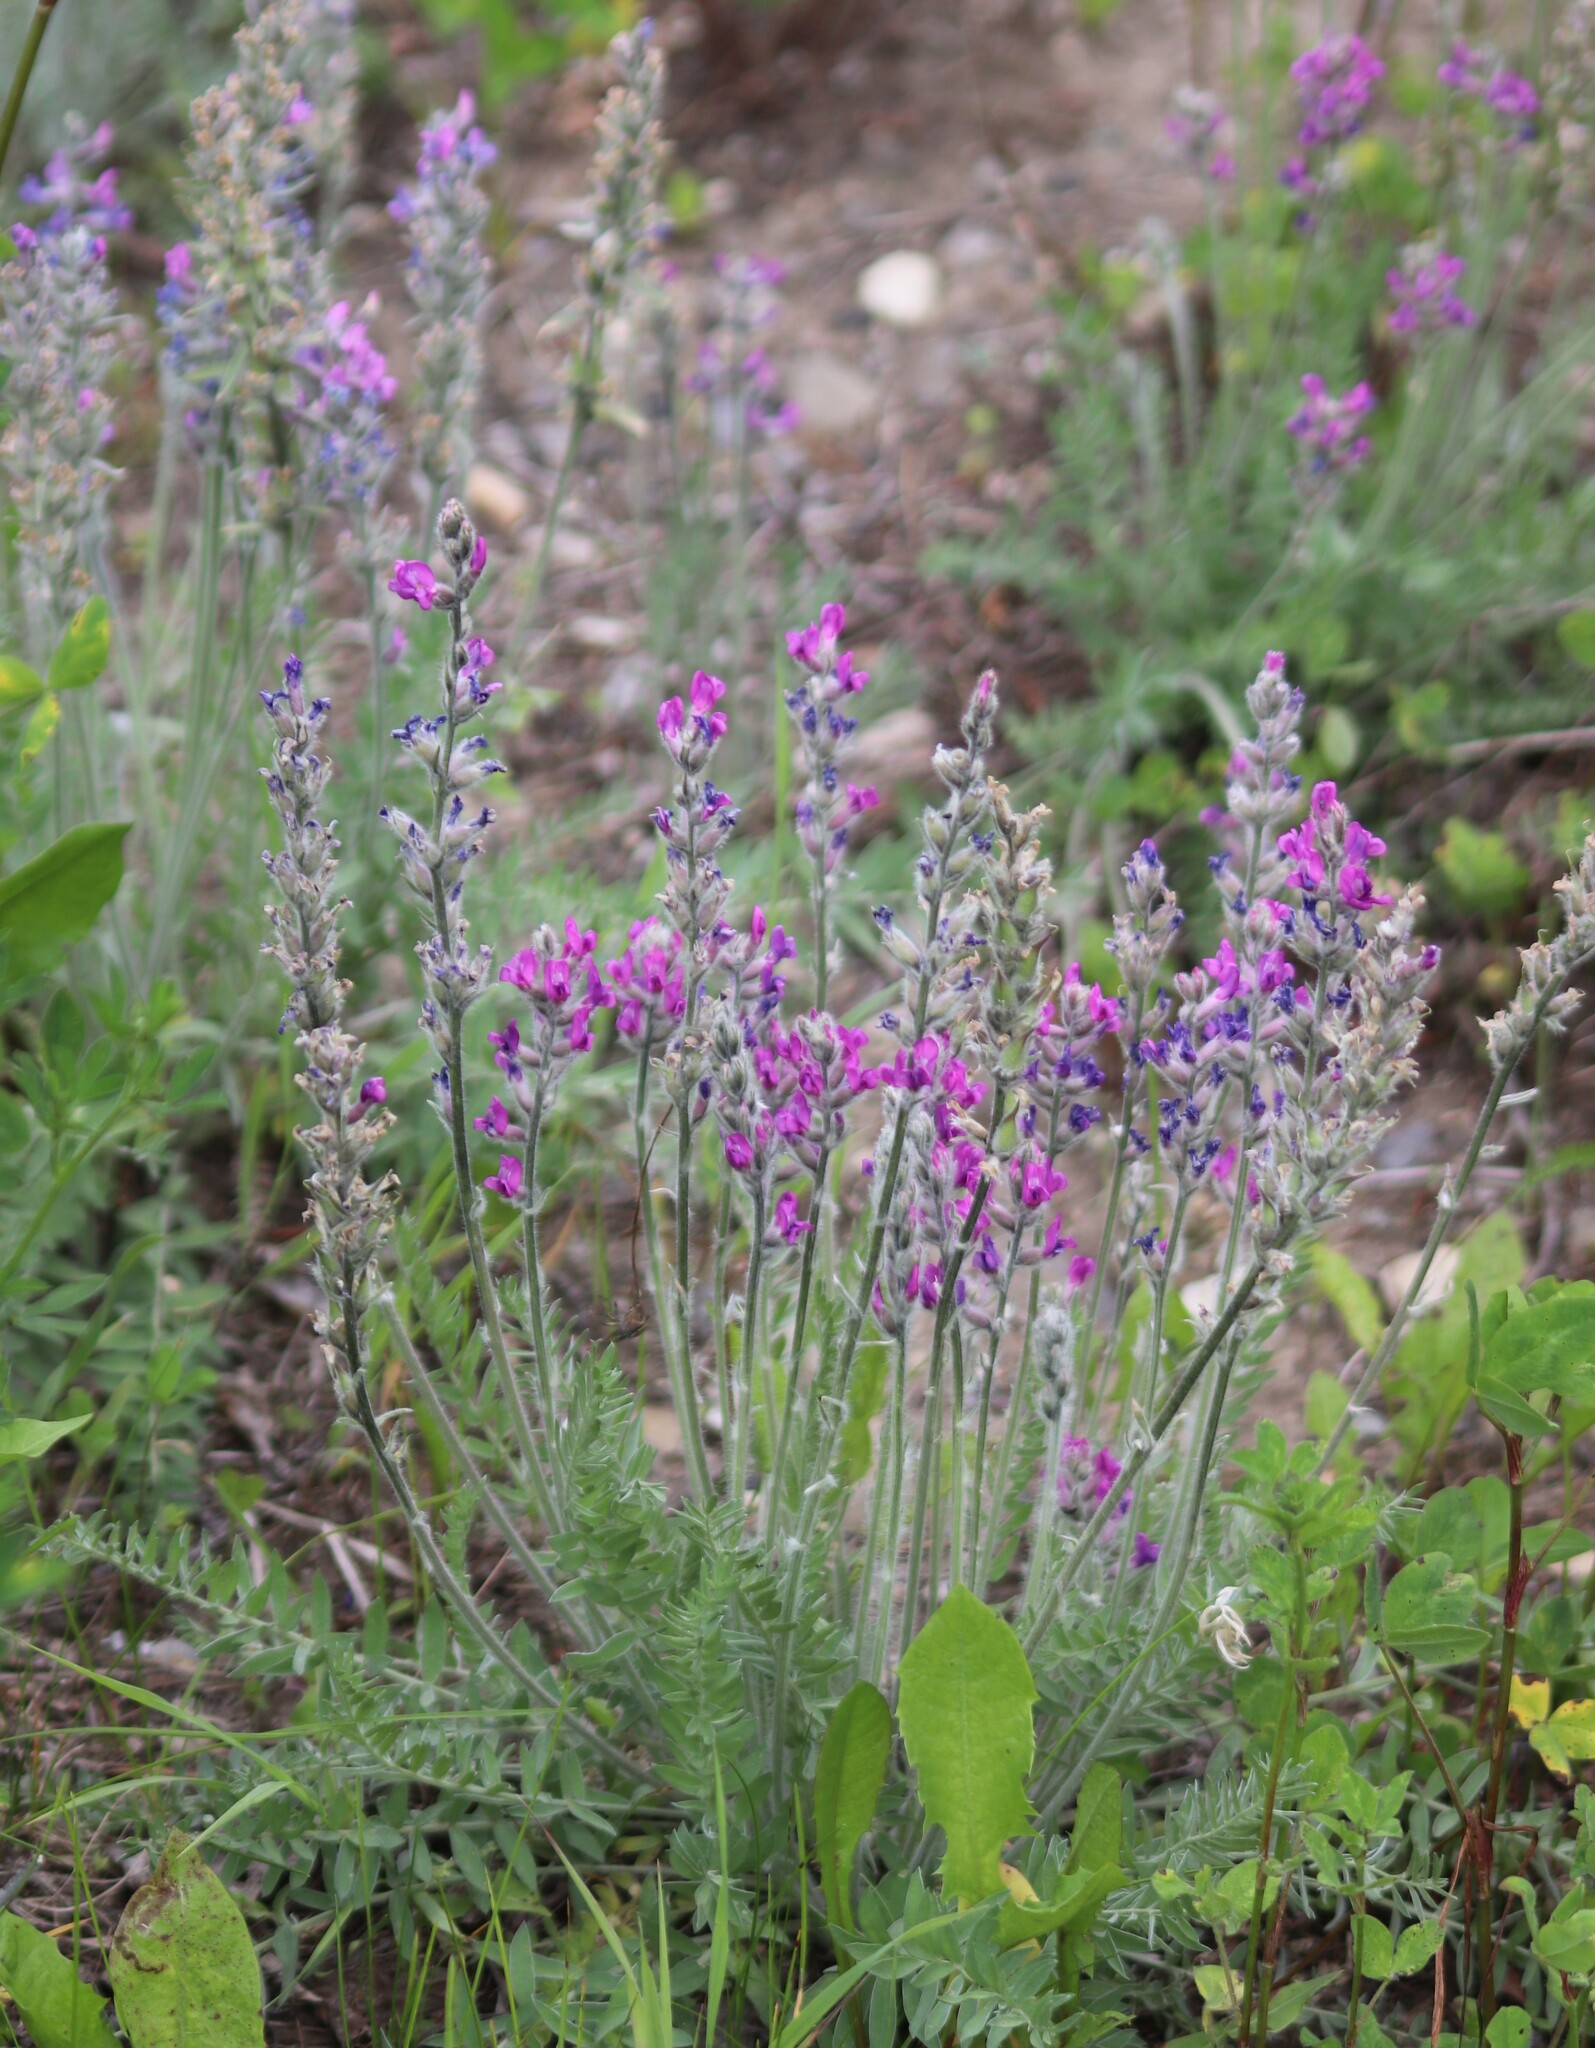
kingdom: Plantae
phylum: Tracheophyta
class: Magnoliopsida
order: Fabales
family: Fabaceae
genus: Oxytropis
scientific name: Oxytropis splendens
